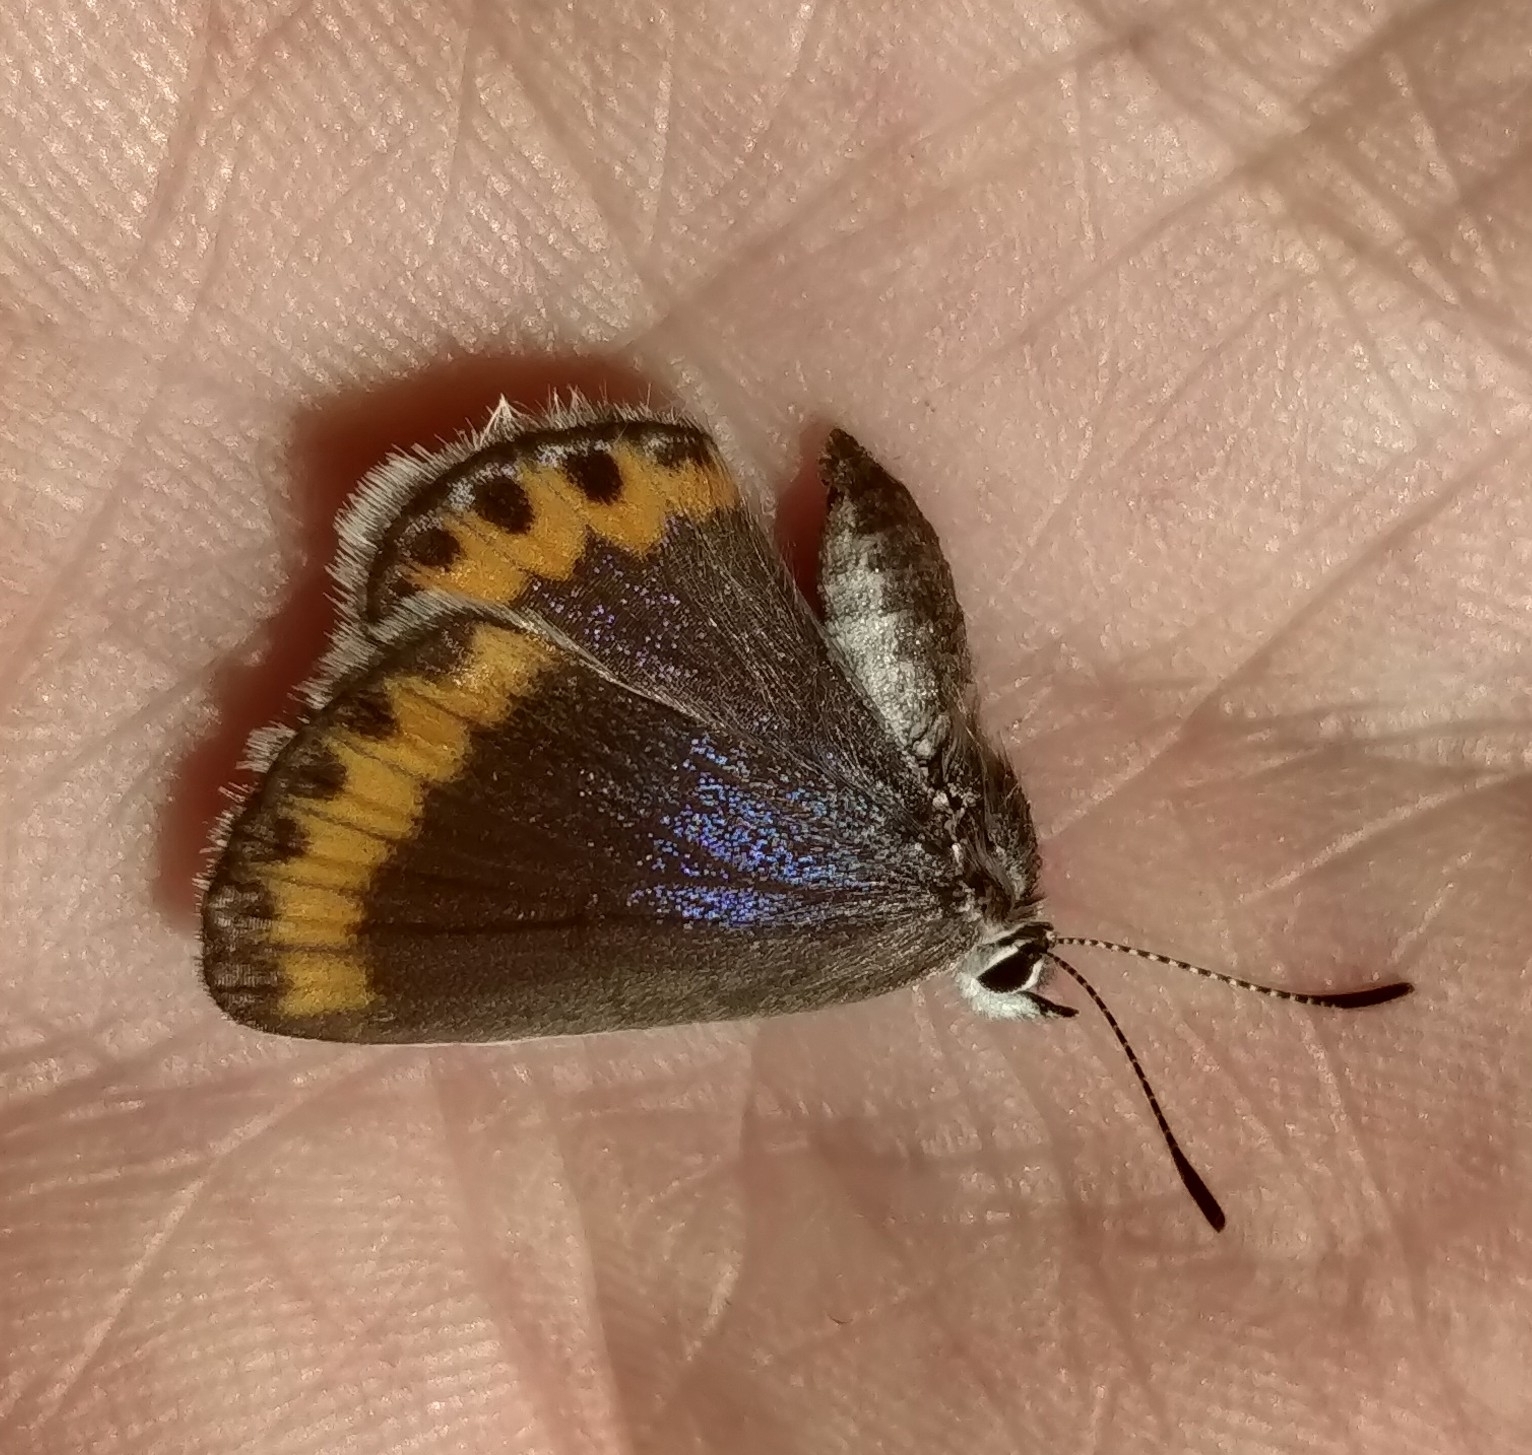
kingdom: Animalia
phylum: Arthropoda
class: Insecta
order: Lepidoptera
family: Lycaenidae
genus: Lycaeides
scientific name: Lycaeides melissa
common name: Melissa blue
